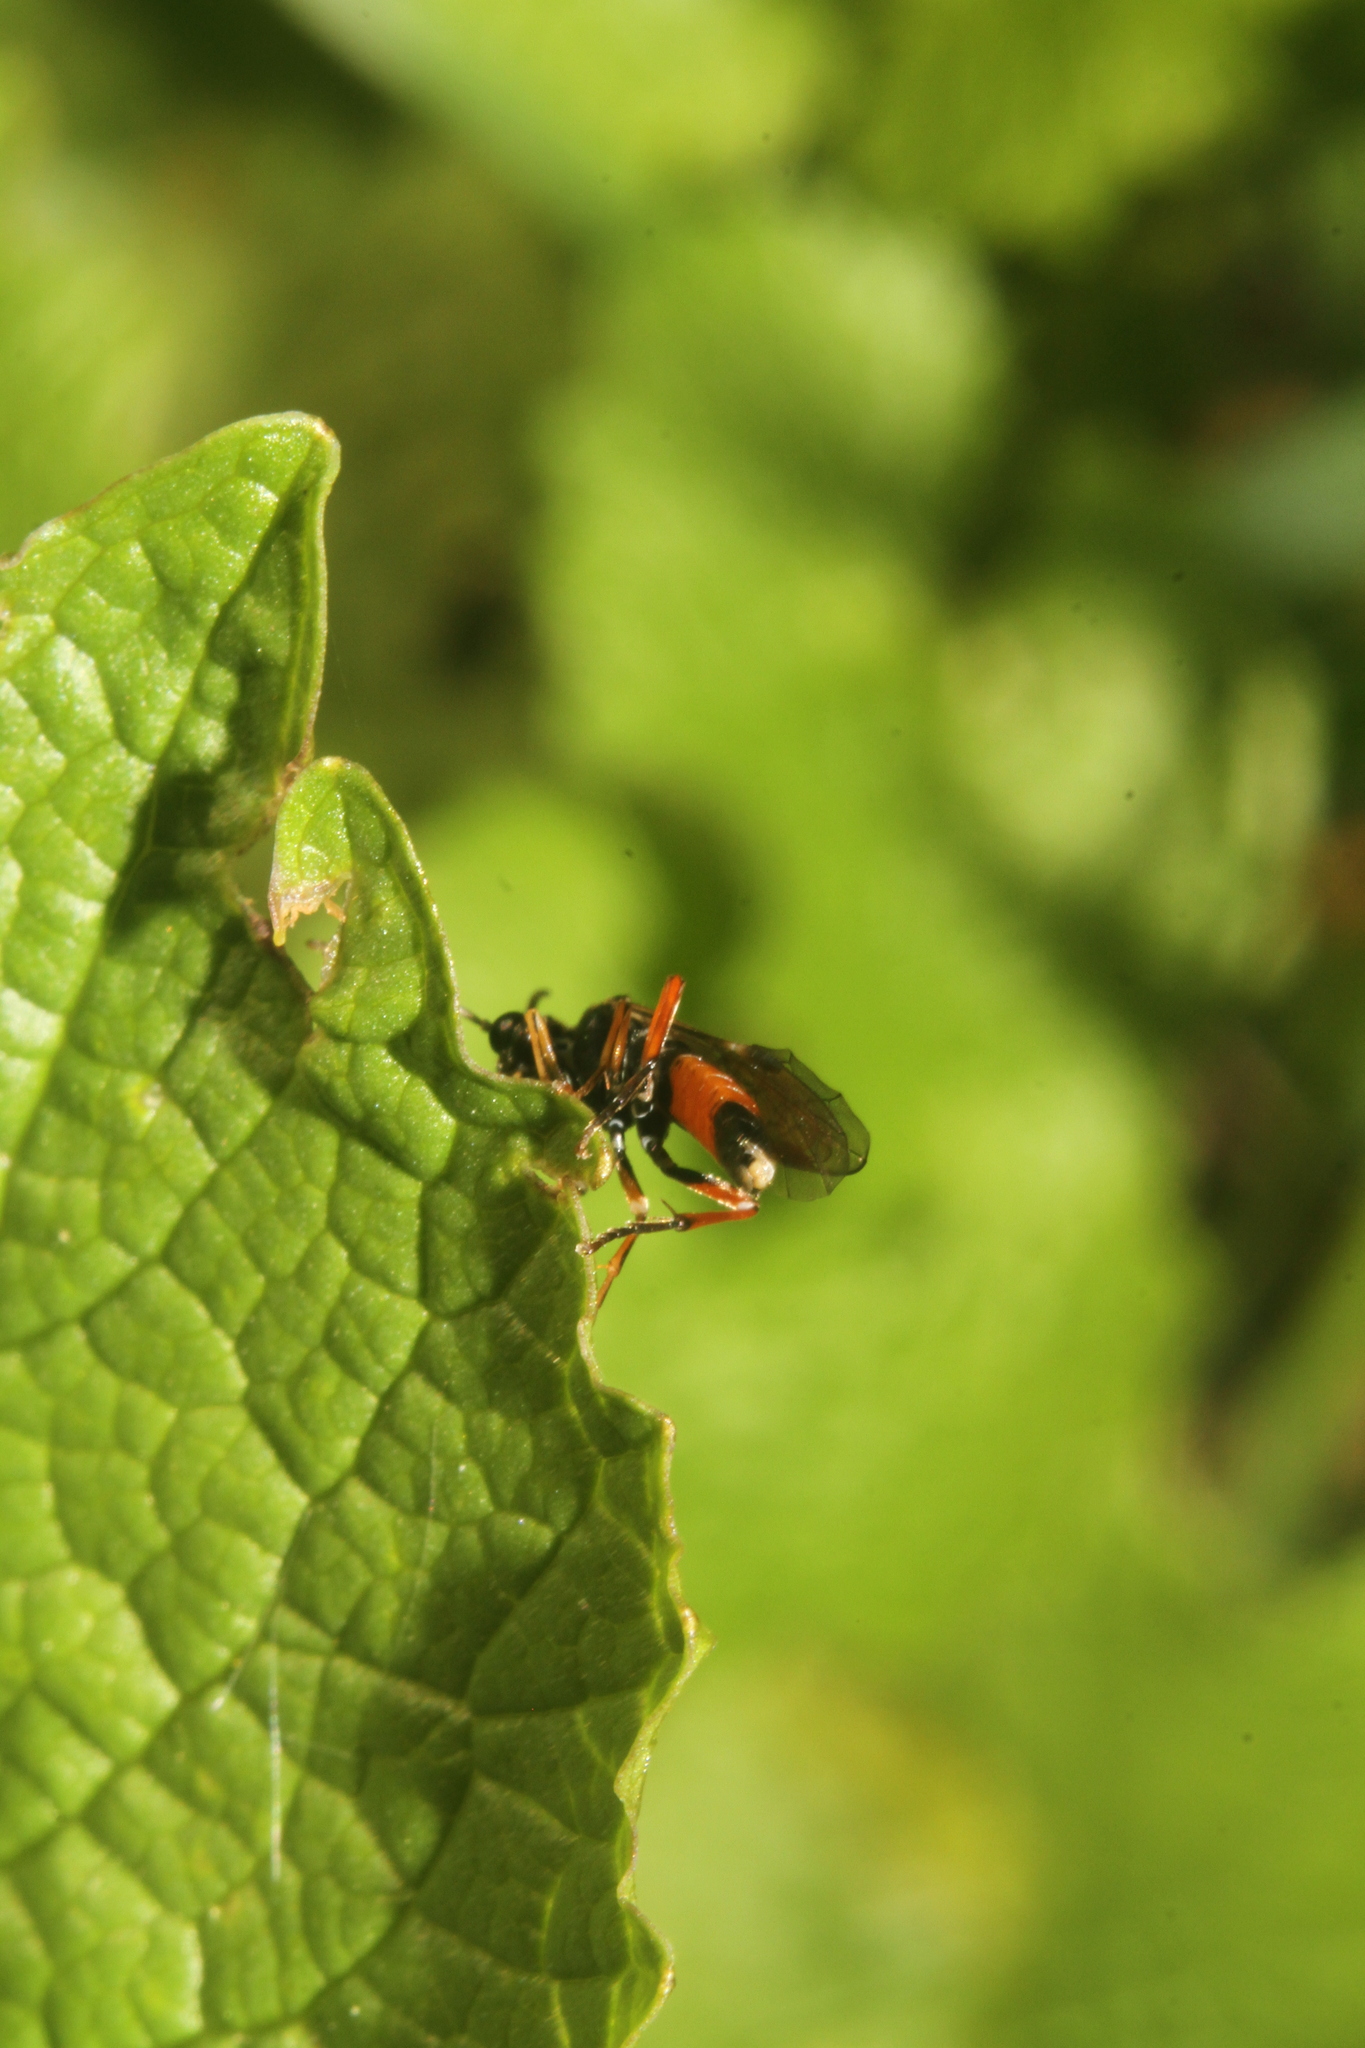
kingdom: Animalia
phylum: Arthropoda
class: Insecta
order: Hymenoptera
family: Tenthredinidae
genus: Aglaostigma
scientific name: Aglaostigma aucupariae
